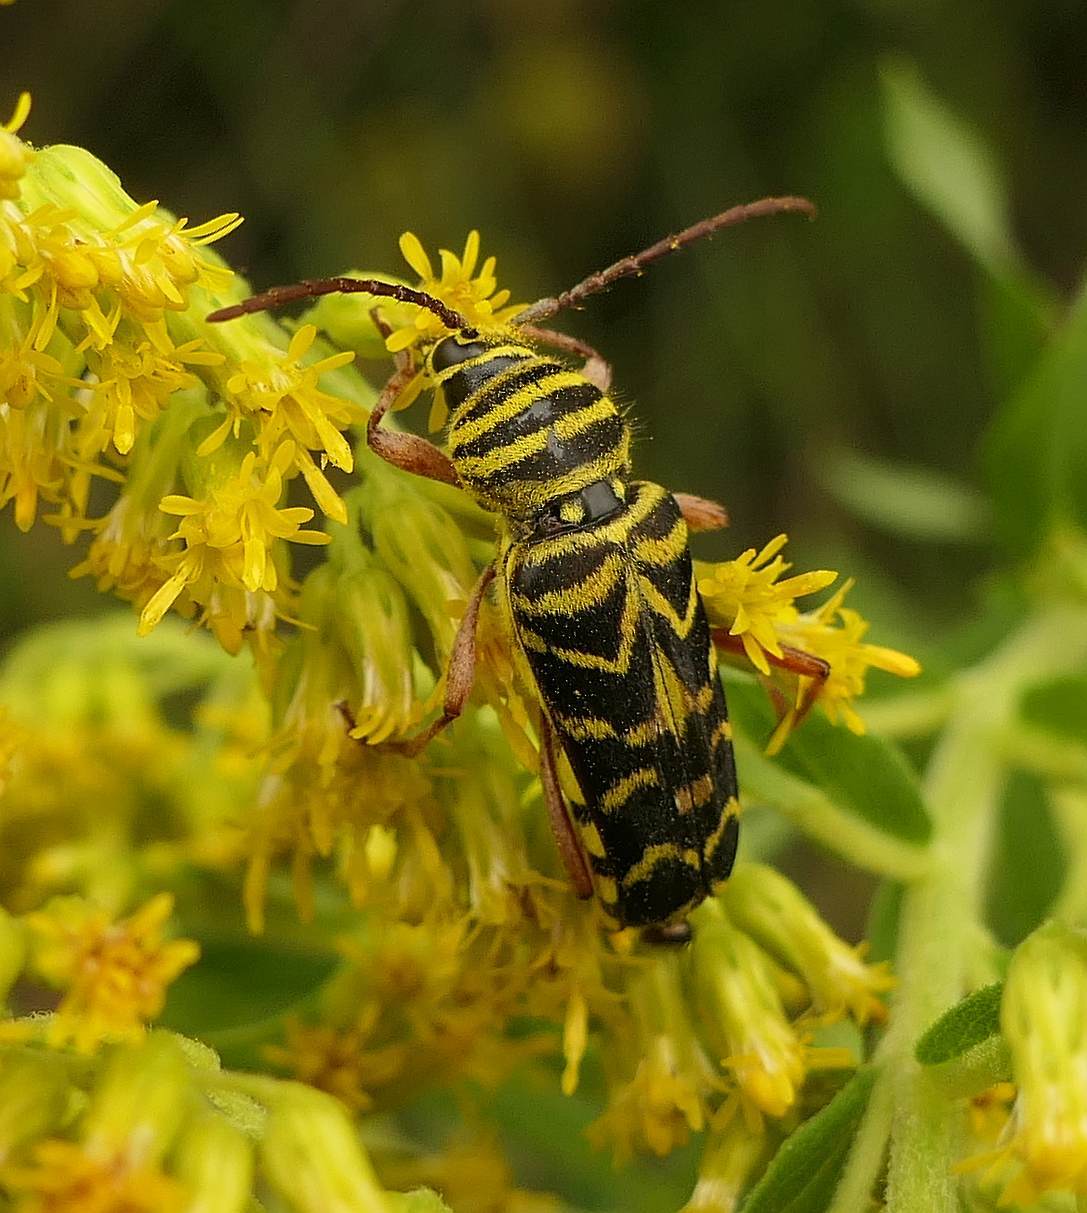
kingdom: Animalia
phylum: Arthropoda
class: Insecta
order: Coleoptera
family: Cerambycidae
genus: Megacyllene
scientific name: Megacyllene robiniae
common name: Locust borer
